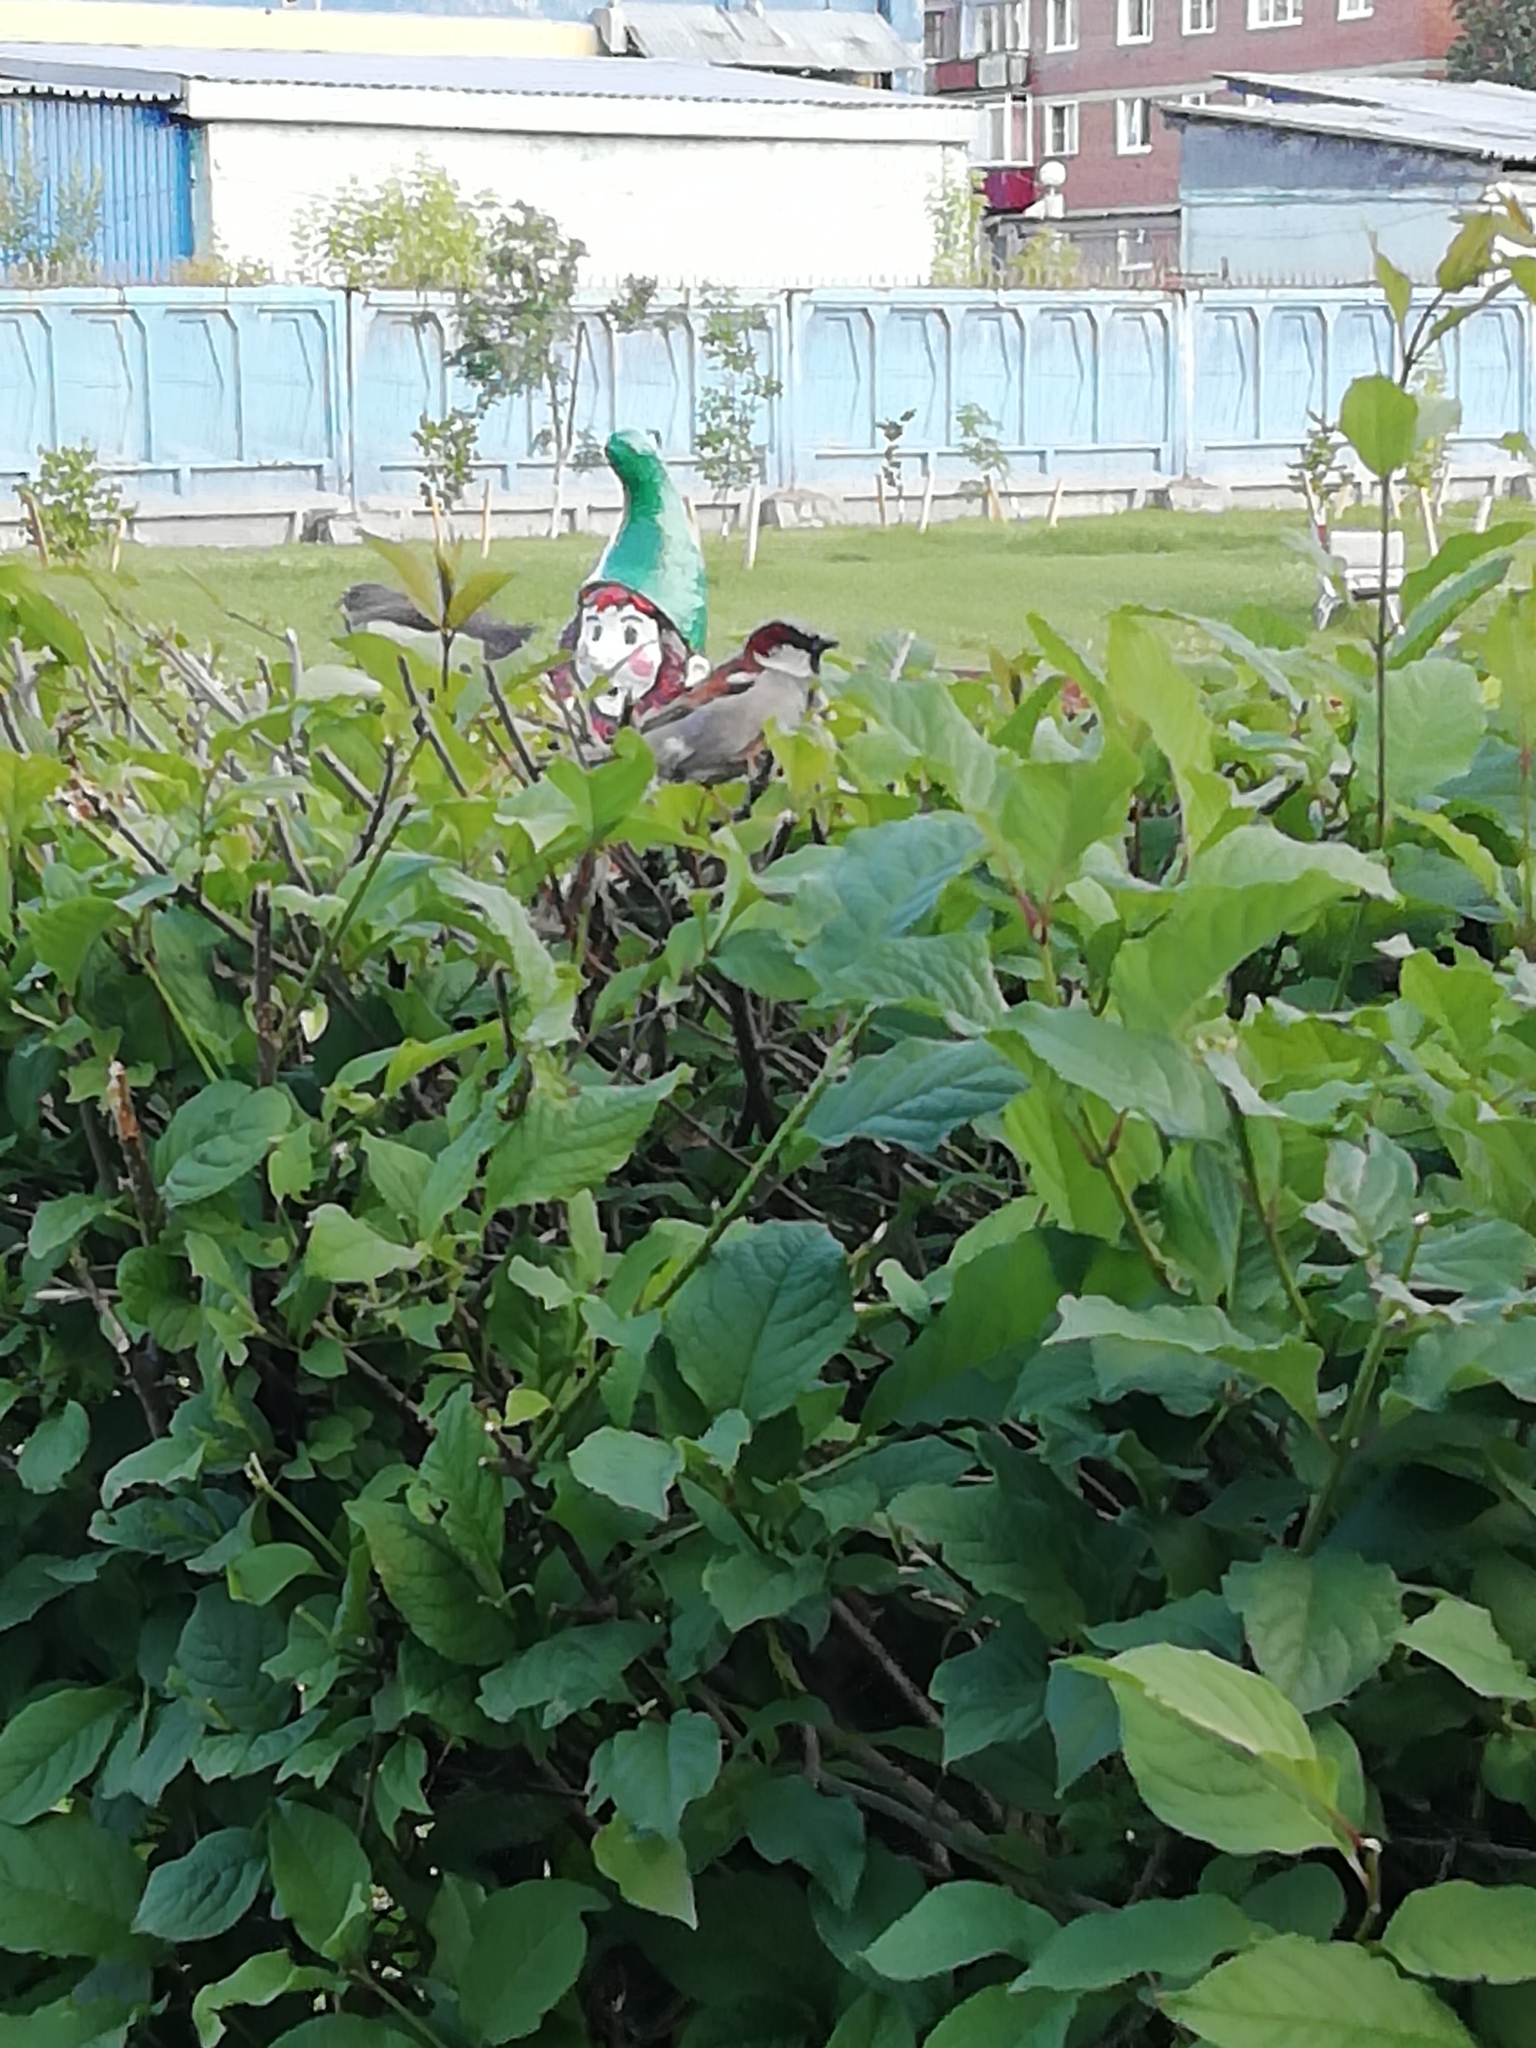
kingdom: Animalia
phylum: Chordata
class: Aves
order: Passeriformes
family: Passeridae
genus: Passer
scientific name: Passer domesticus
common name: House sparrow
